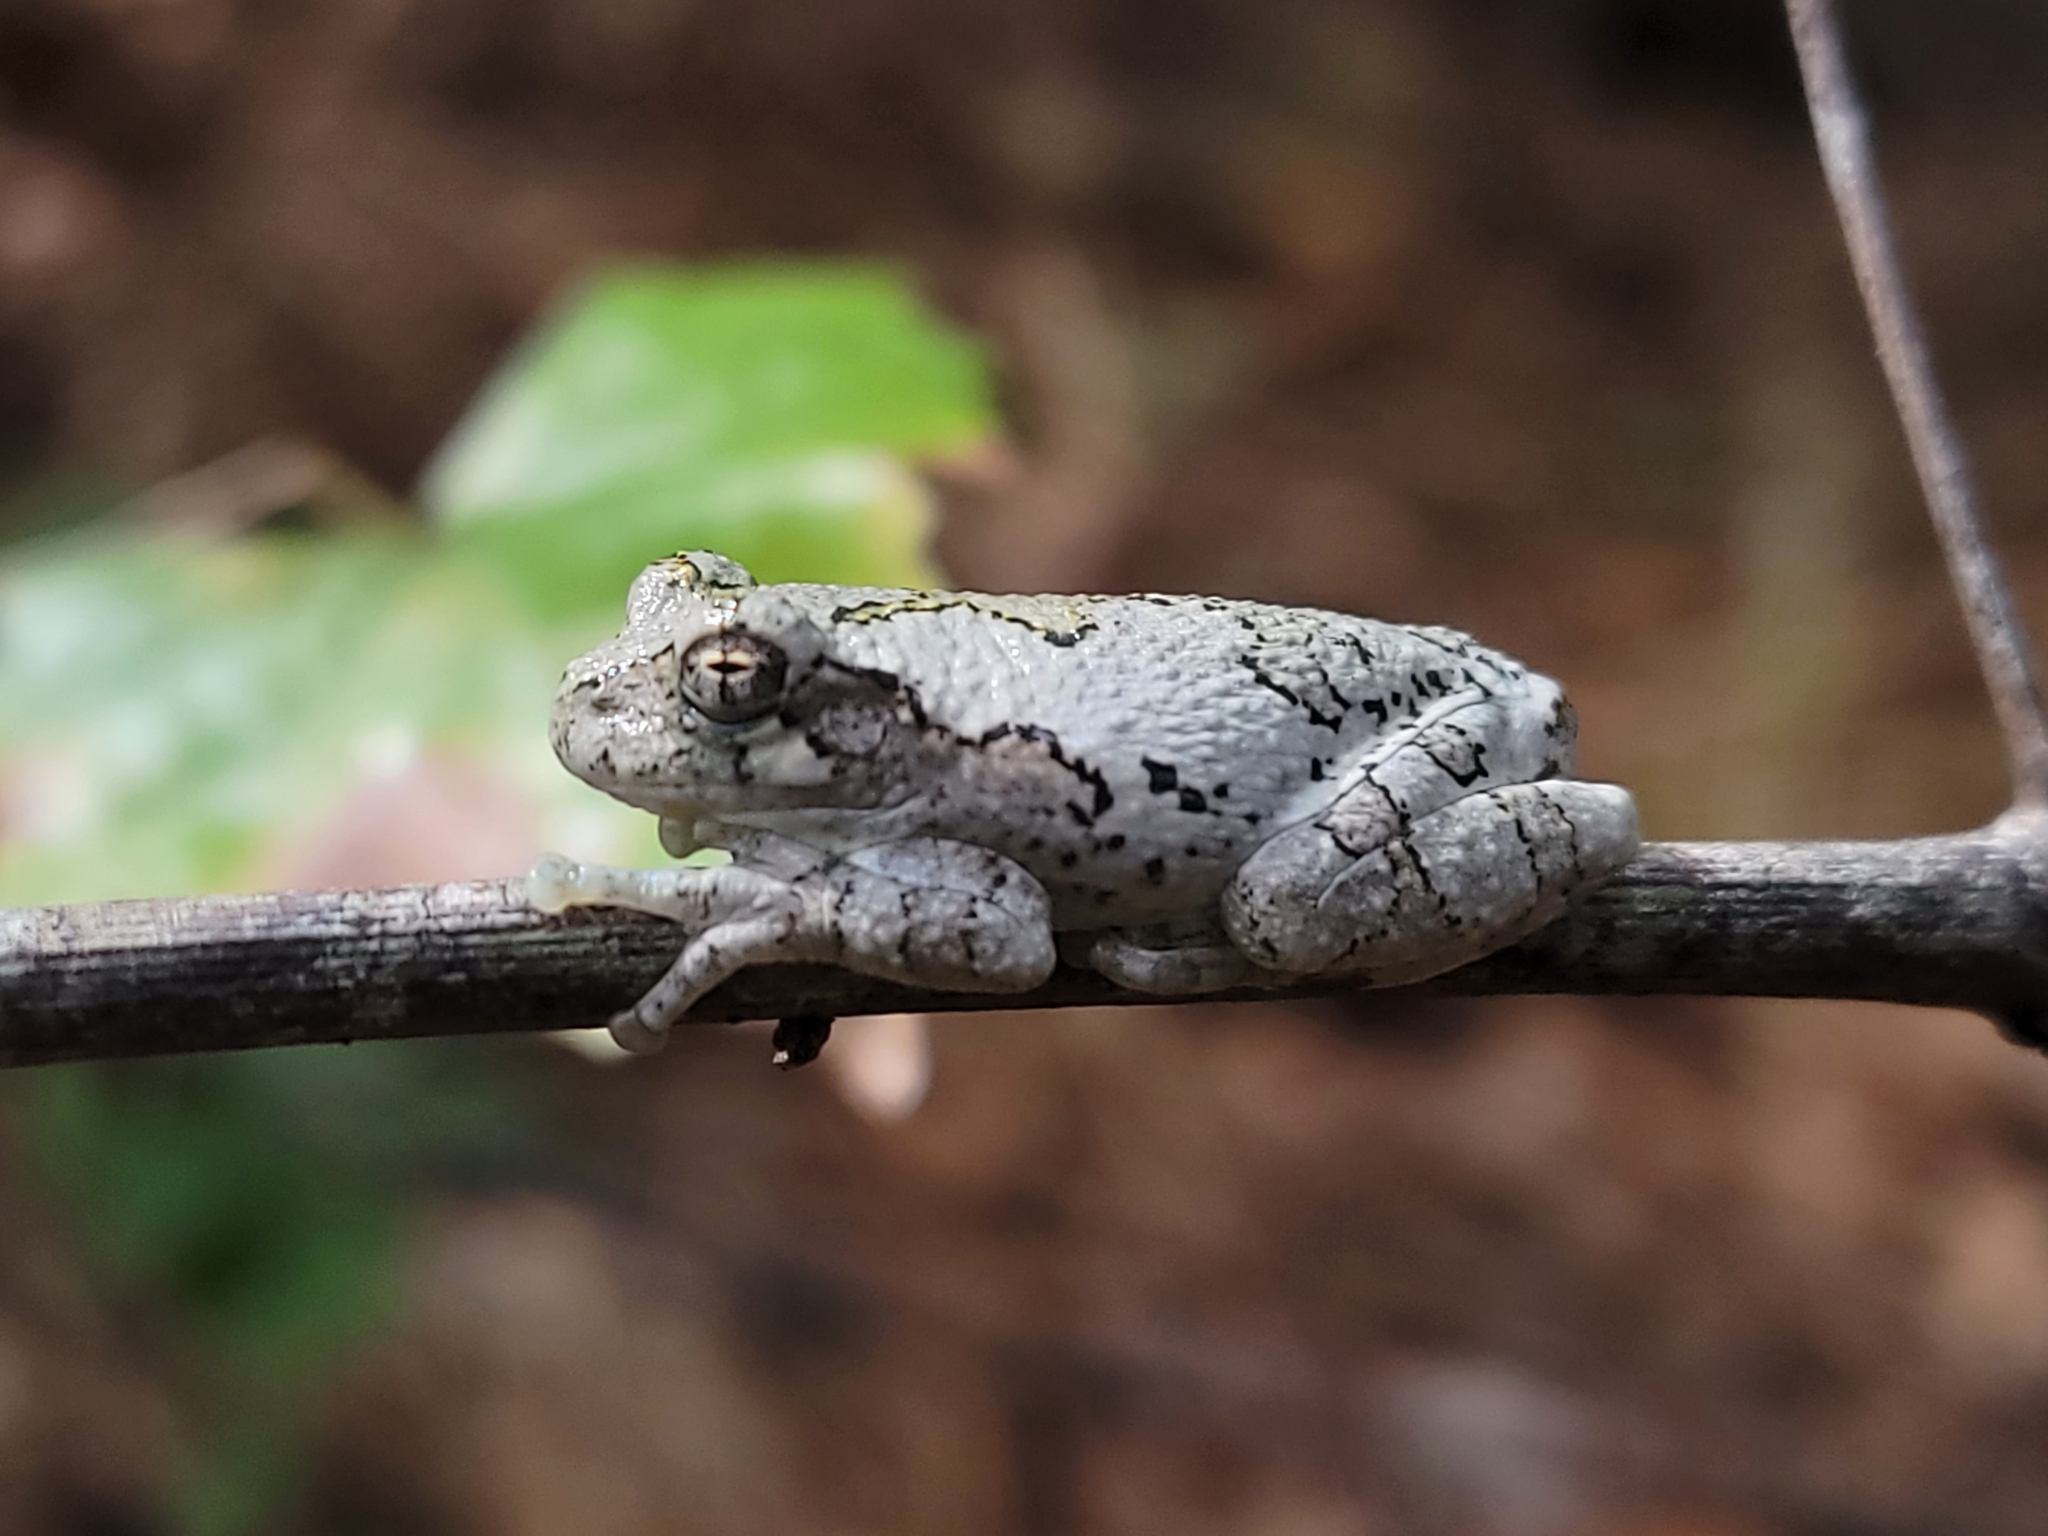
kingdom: Animalia
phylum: Chordata
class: Amphibia
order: Anura
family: Hylidae
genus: Dryophytes
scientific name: Dryophytes chrysoscelis
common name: Cope's gray treefrog
